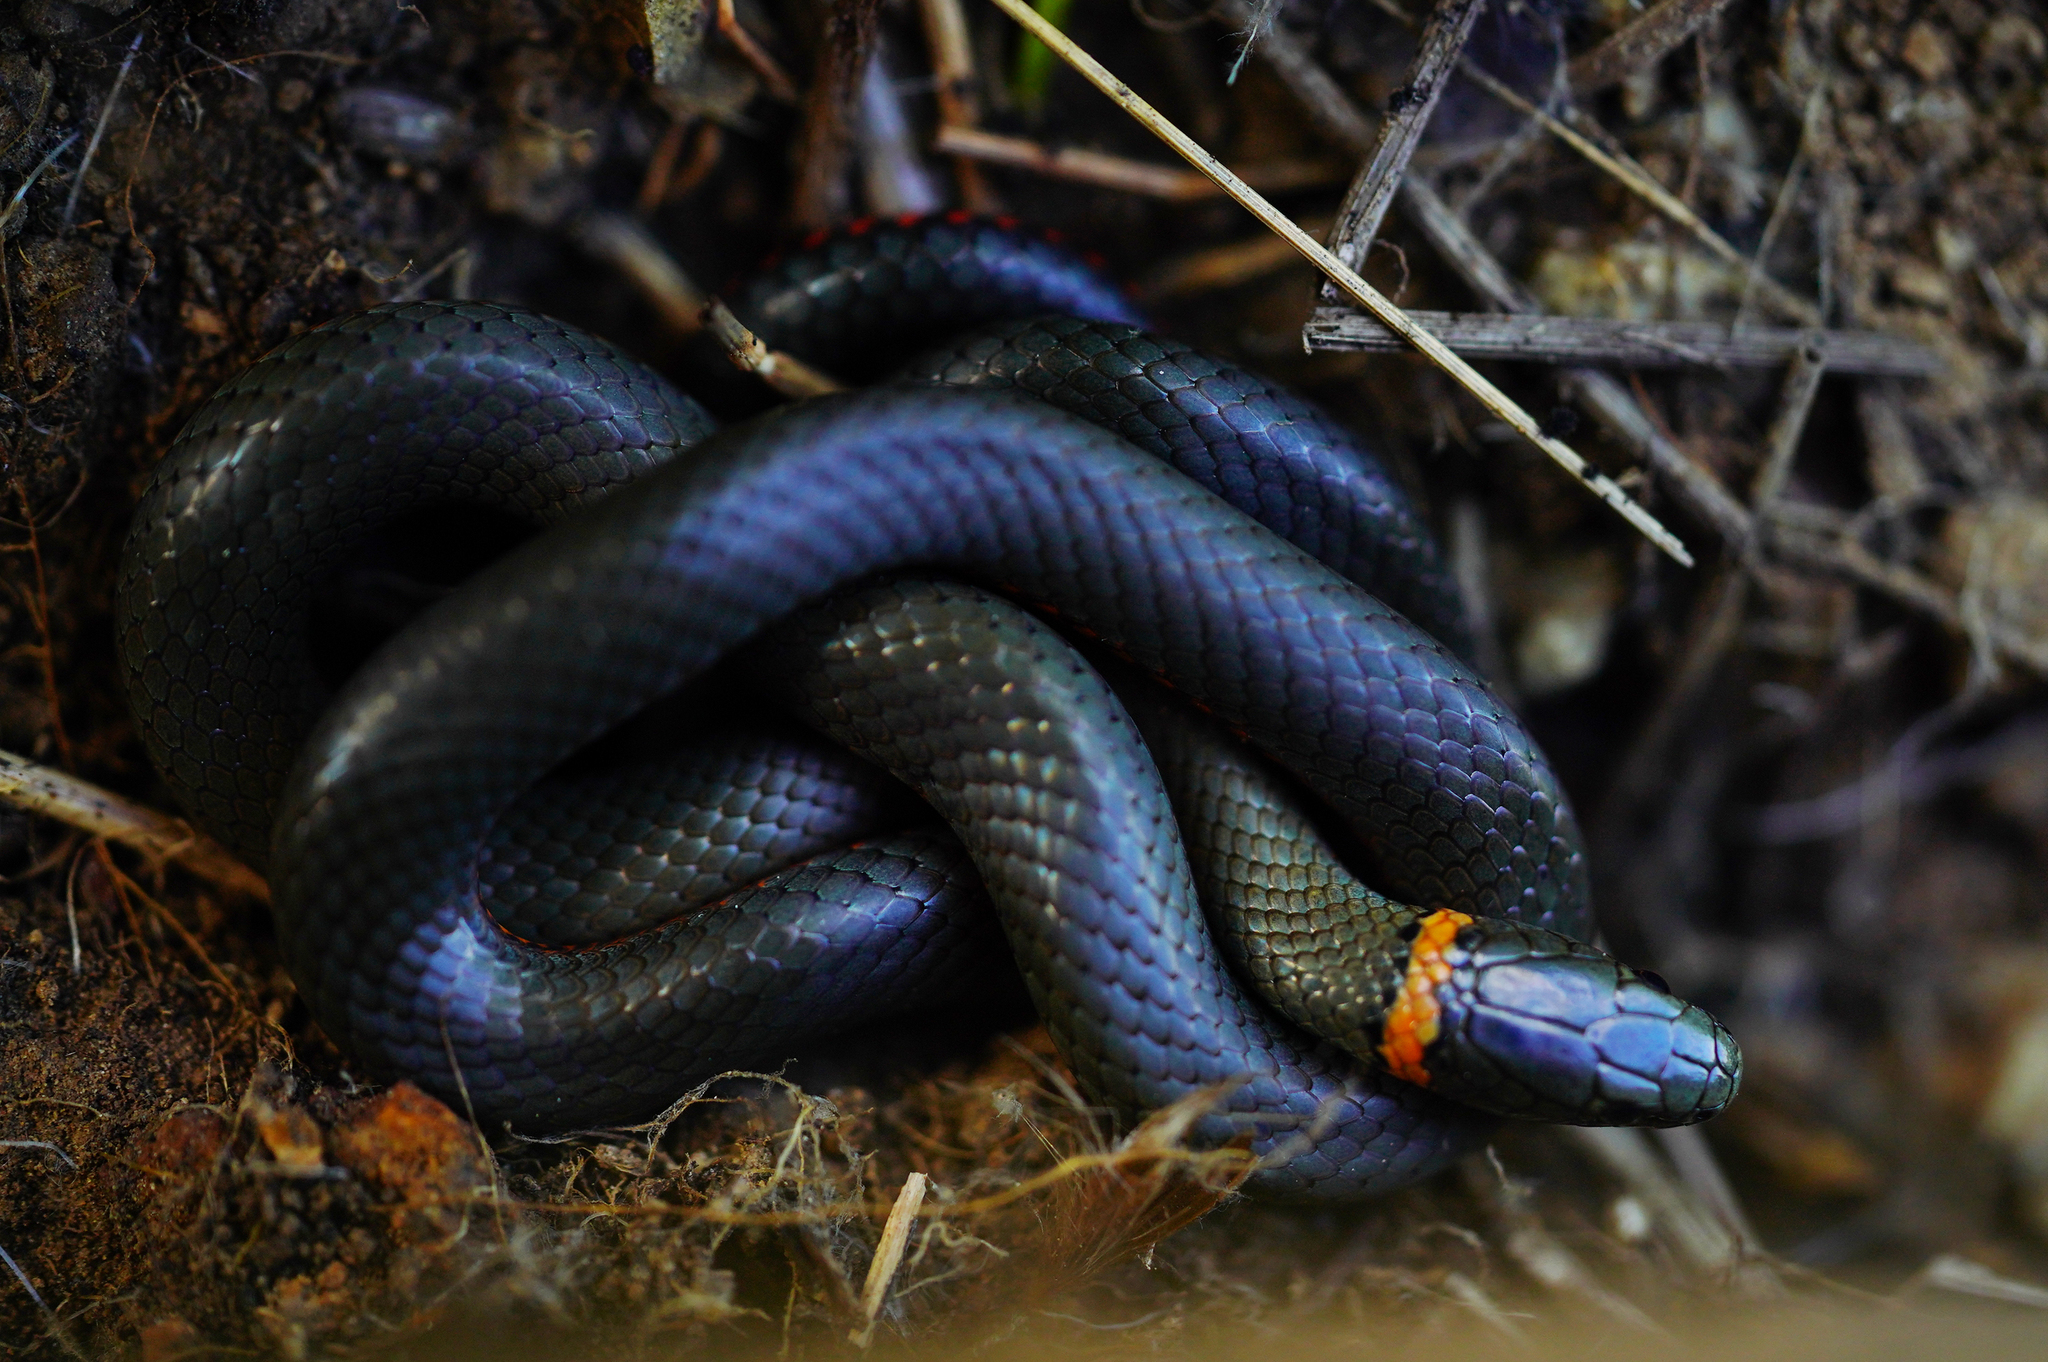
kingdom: Animalia
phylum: Chordata
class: Squamata
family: Colubridae
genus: Diadophis
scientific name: Diadophis punctatus
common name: Ringneck snake
